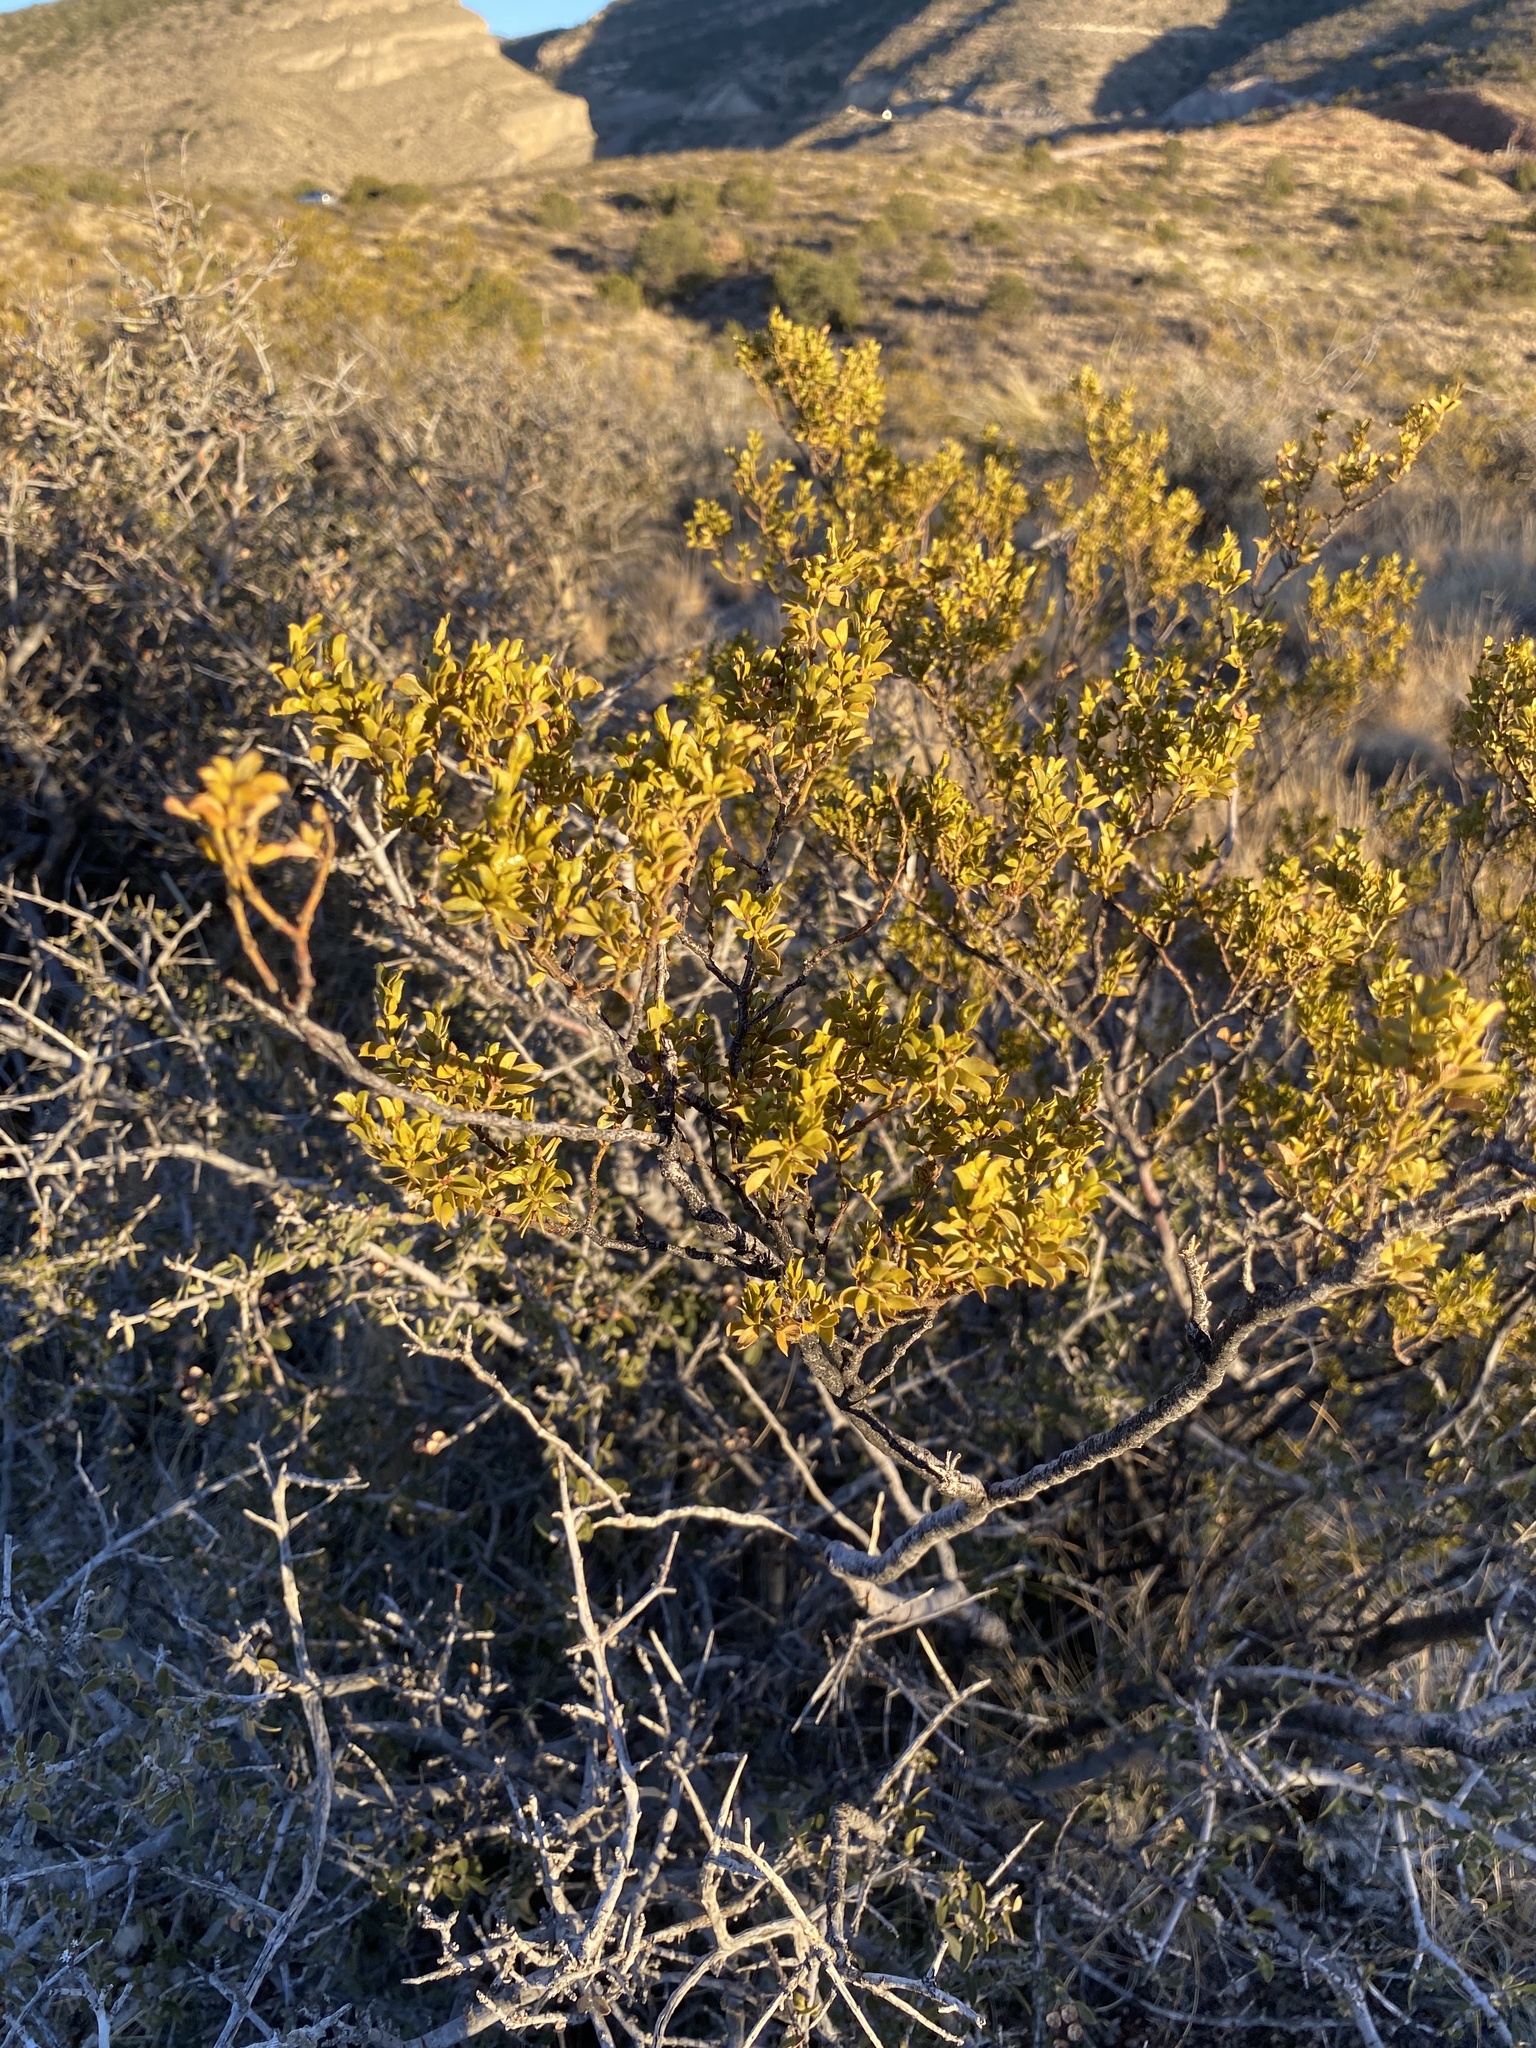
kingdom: Plantae
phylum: Tracheophyta
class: Magnoliopsida
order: Zygophyllales
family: Zygophyllaceae
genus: Larrea
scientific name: Larrea tridentata
